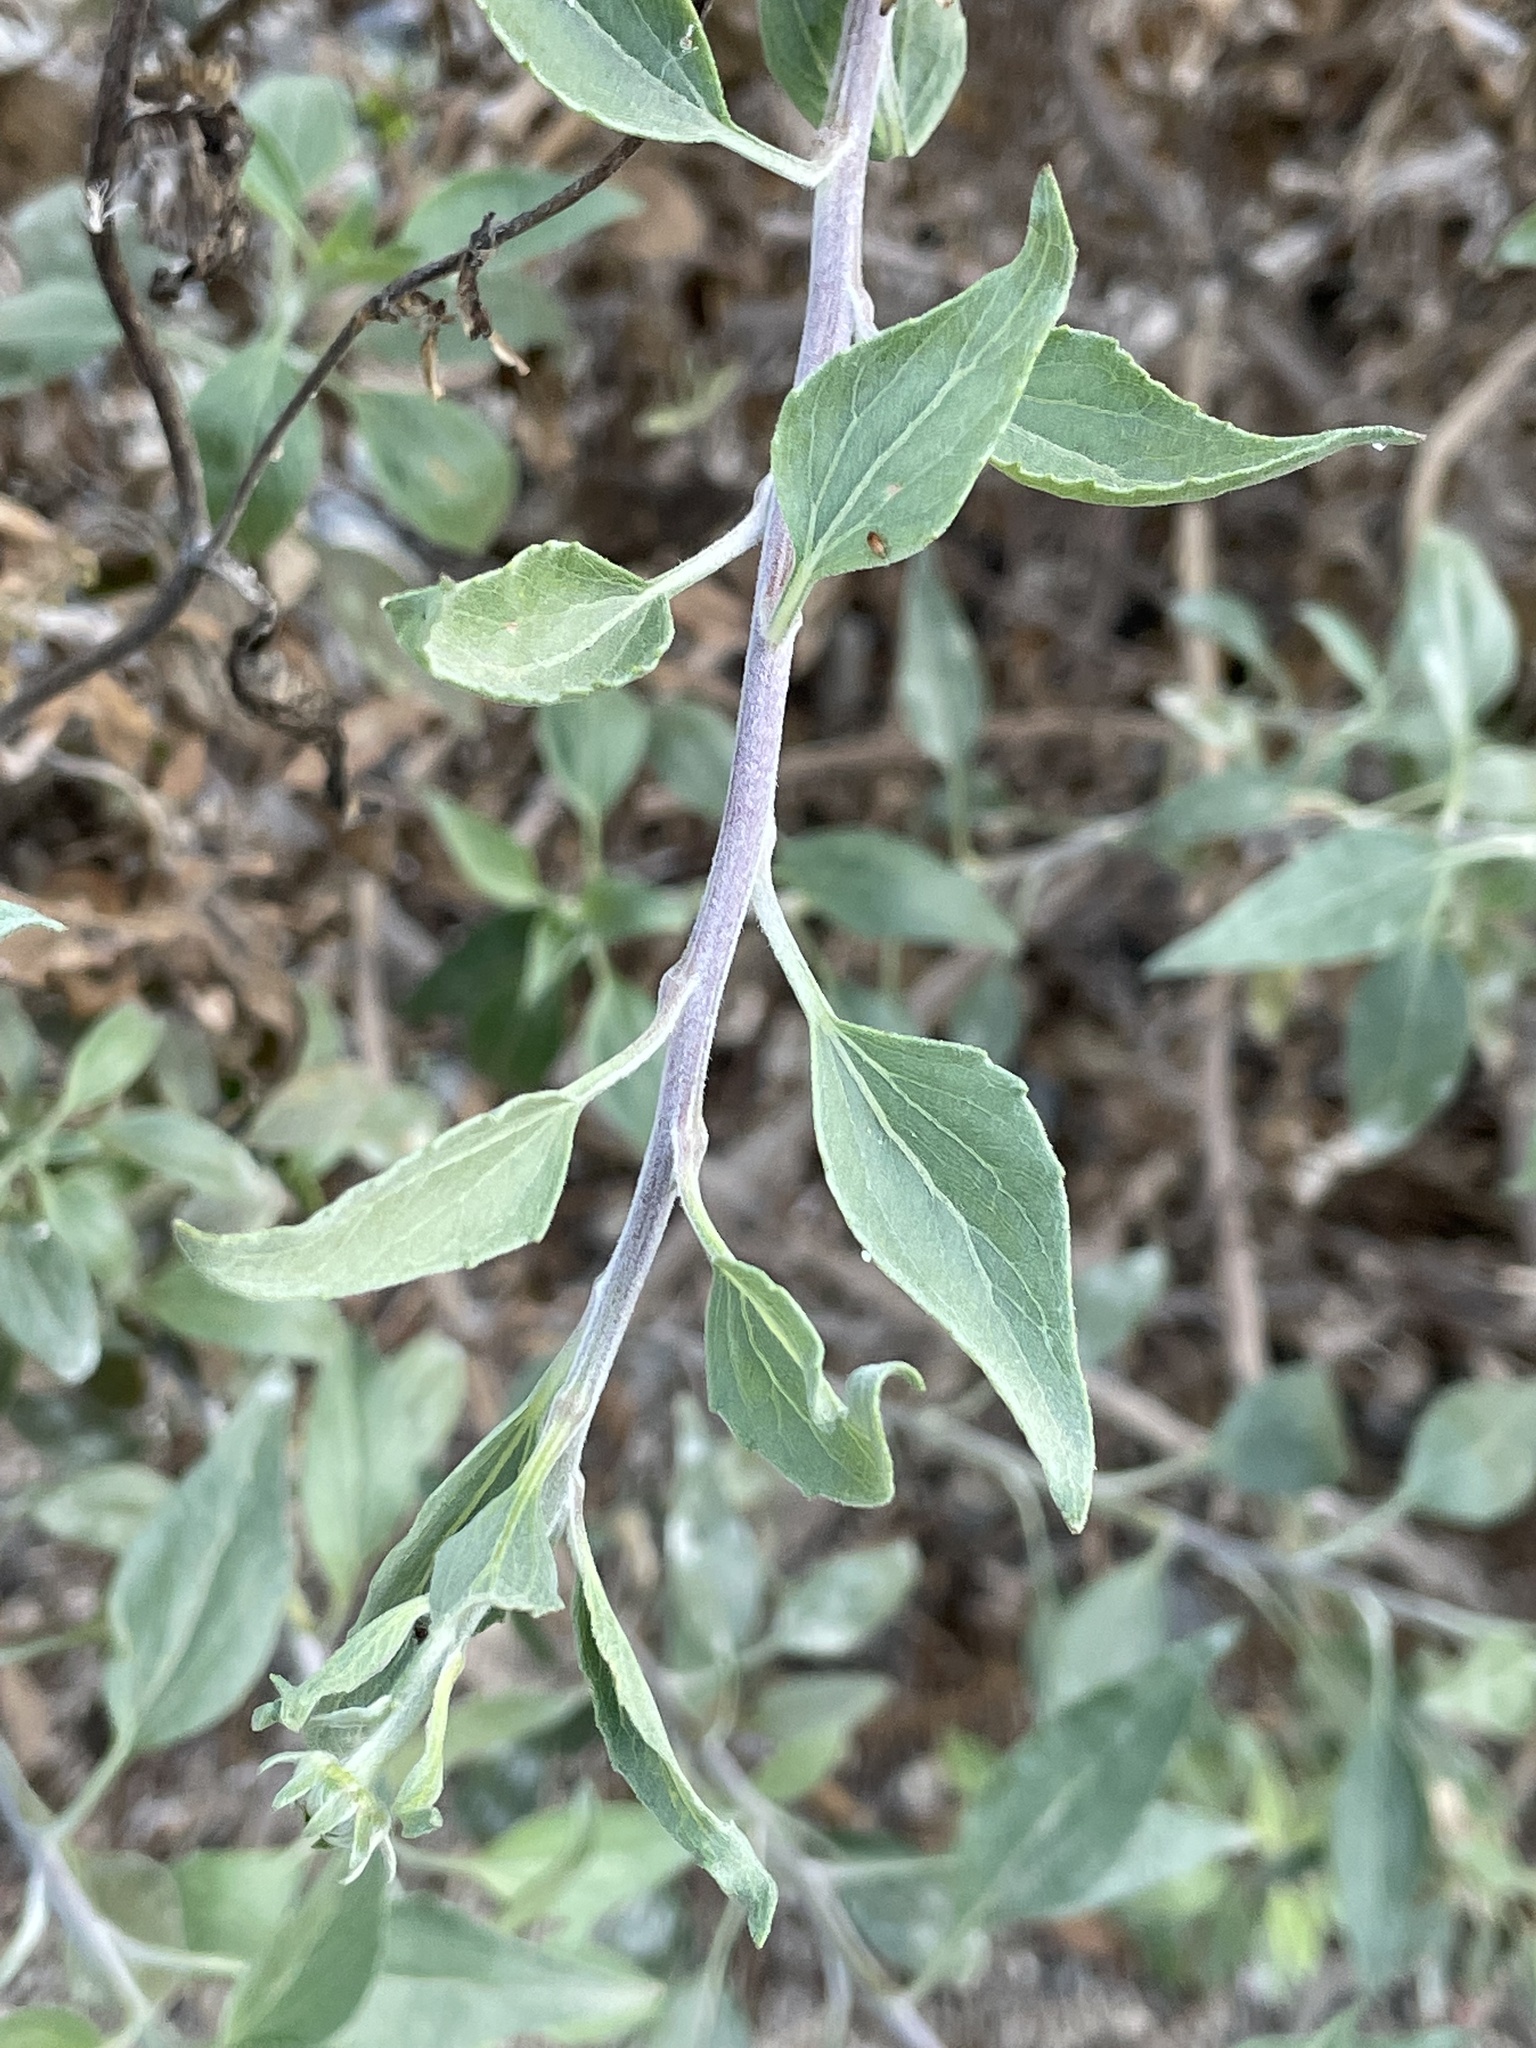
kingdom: Plantae
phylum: Tracheophyta
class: Magnoliopsida
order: Asterales
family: Asteraceae
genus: Encelia
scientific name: Encelia californica
